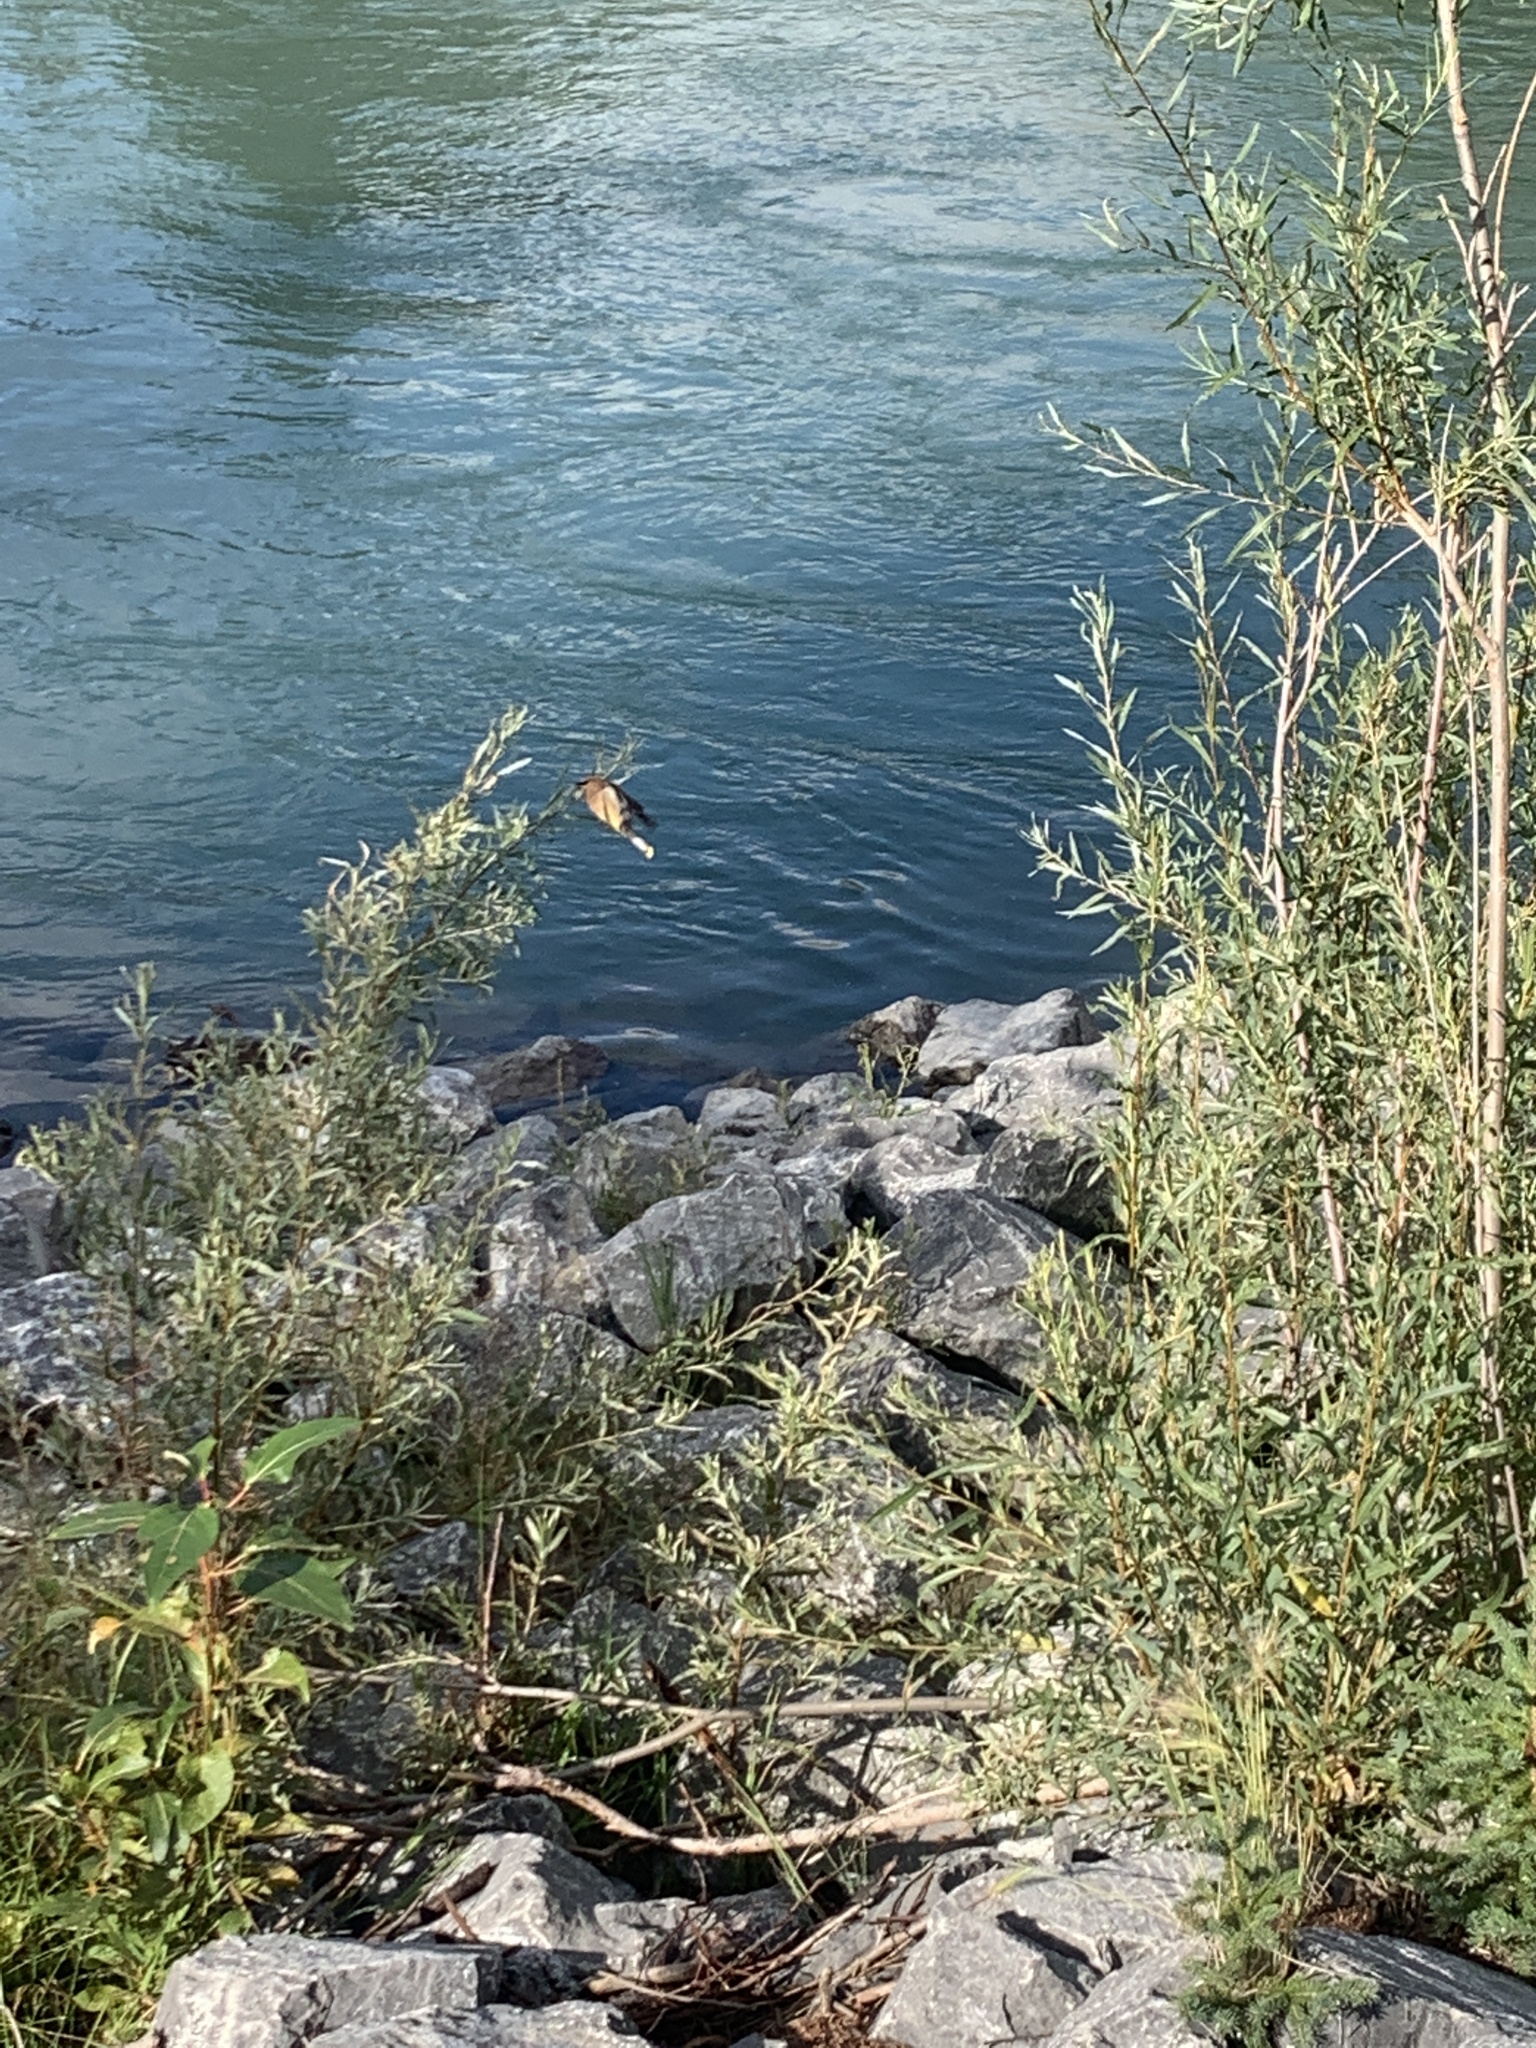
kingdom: Animalia
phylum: Chordata
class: Aves
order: Passeriformes
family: Bombycillidae
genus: Bombycilla
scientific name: Bombycilla cedrorum
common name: Cedar waxwing
